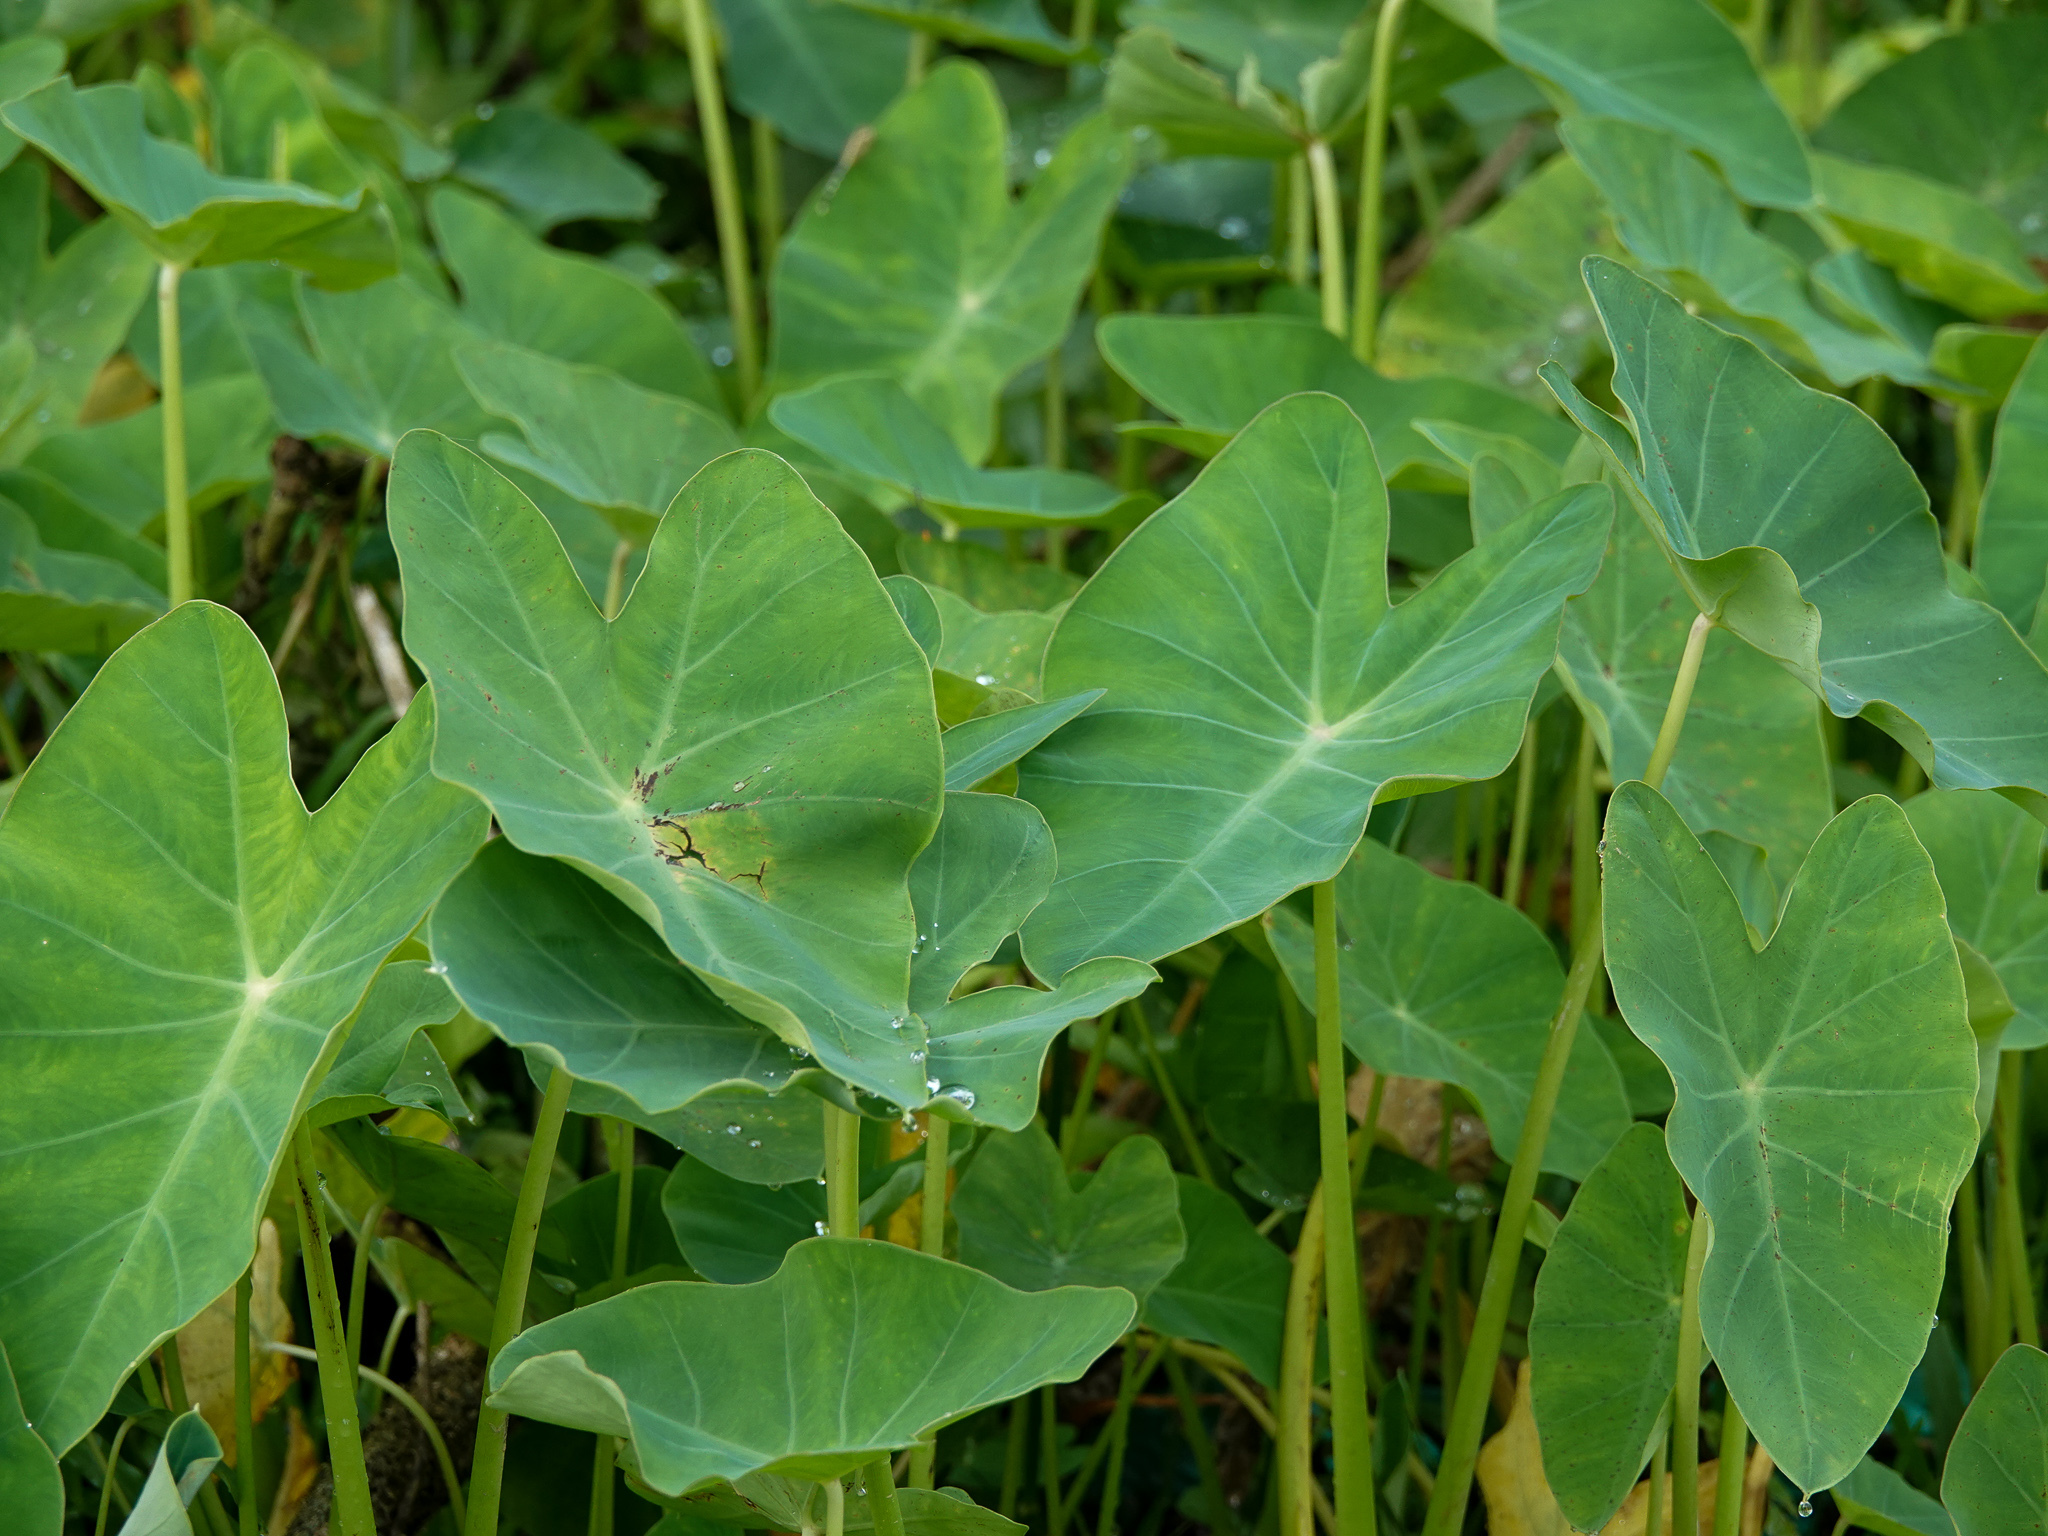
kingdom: Plantae
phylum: Tracheophyta
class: Liliopsida
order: Alismatales
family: Araceae
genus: Colocasia
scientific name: Colocasia esculenta
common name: Taro
